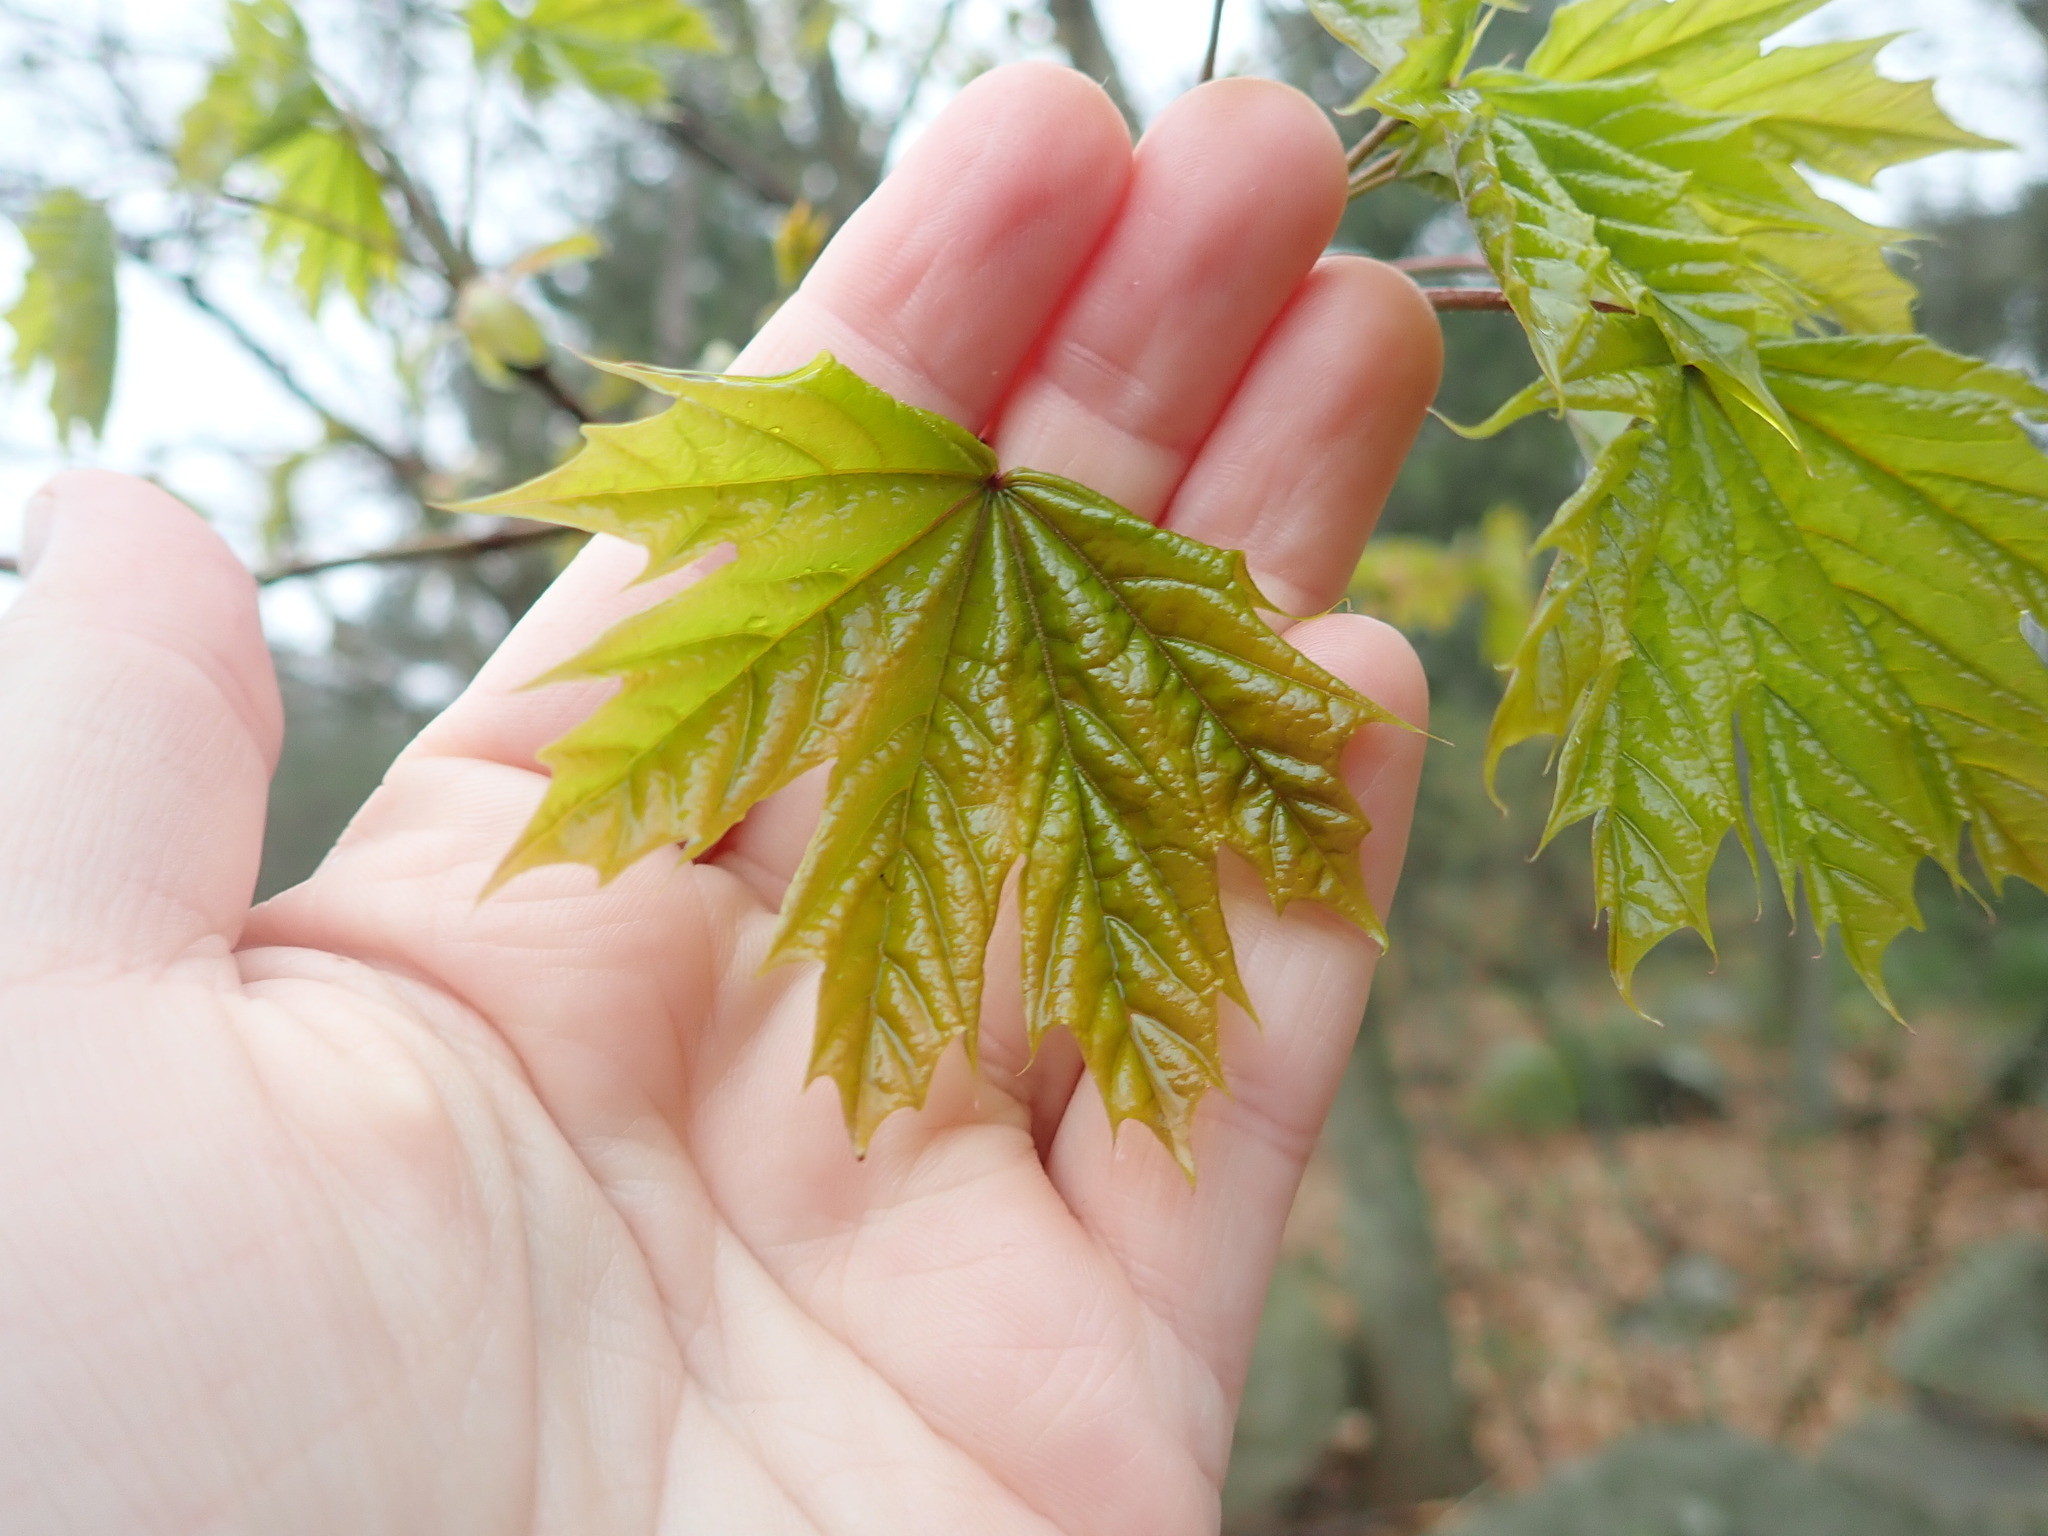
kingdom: Plantae
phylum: Tracheophyta
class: Magnoliopsida
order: Sapindales
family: Sapindaceae
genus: Acer
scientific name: Acer platanoides
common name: Norway maple
